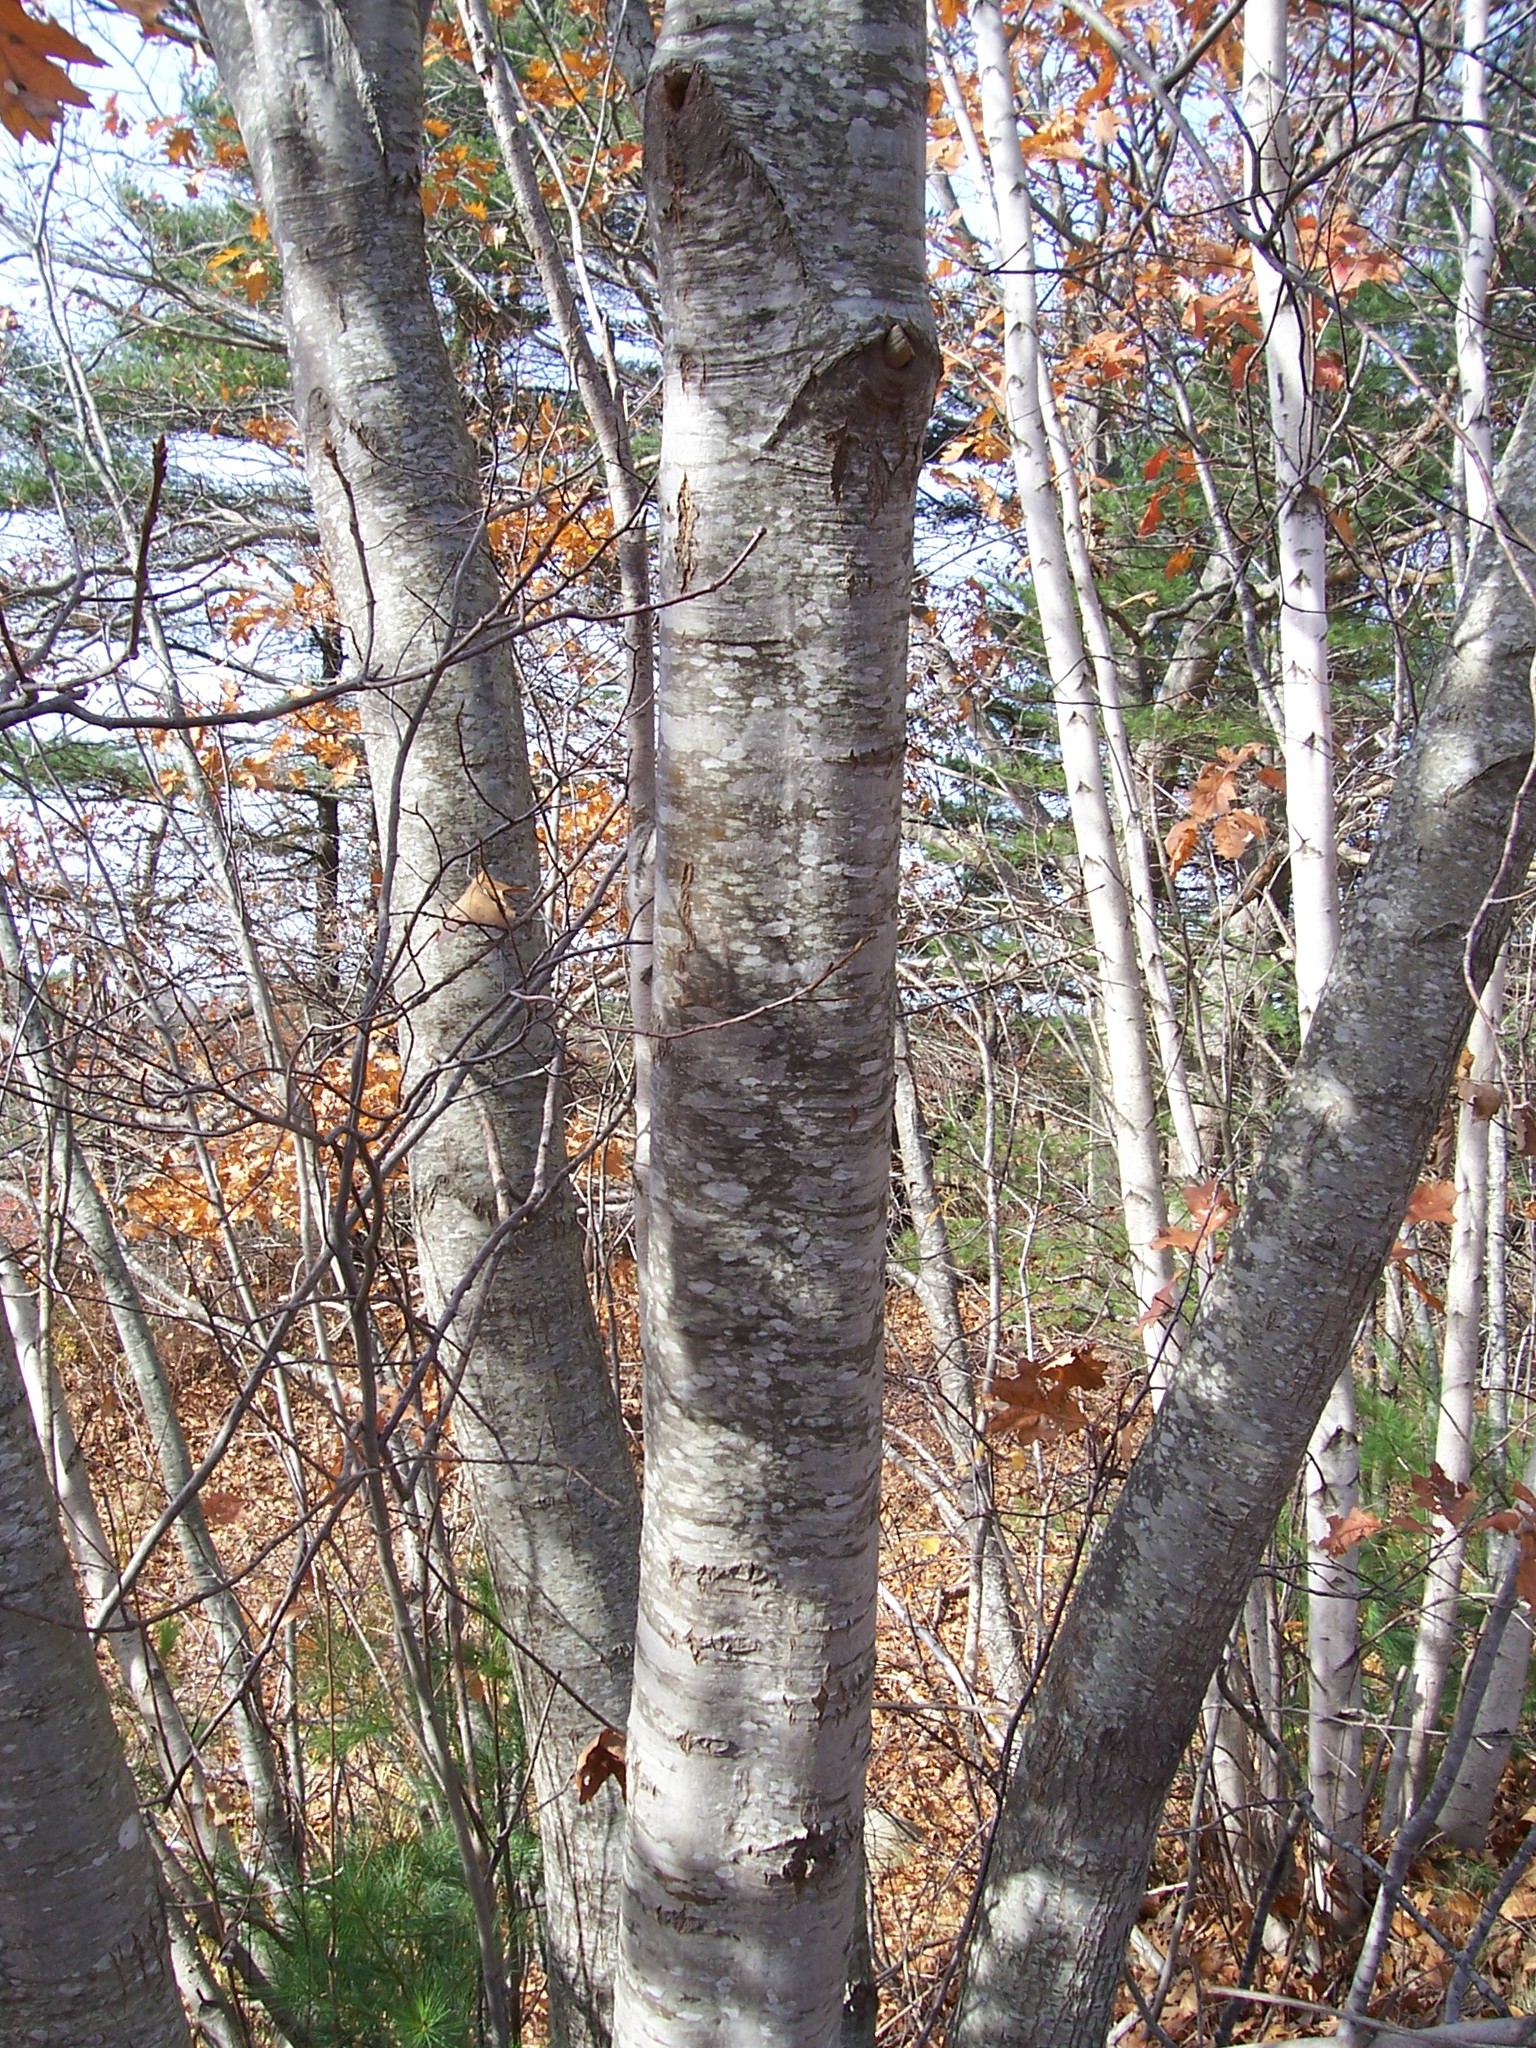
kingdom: Plantae
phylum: Tracheophyta
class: Magnoliopsida
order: Fagales
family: Betulaceae
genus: Betula
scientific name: Betula populifolia
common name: Fire birch
